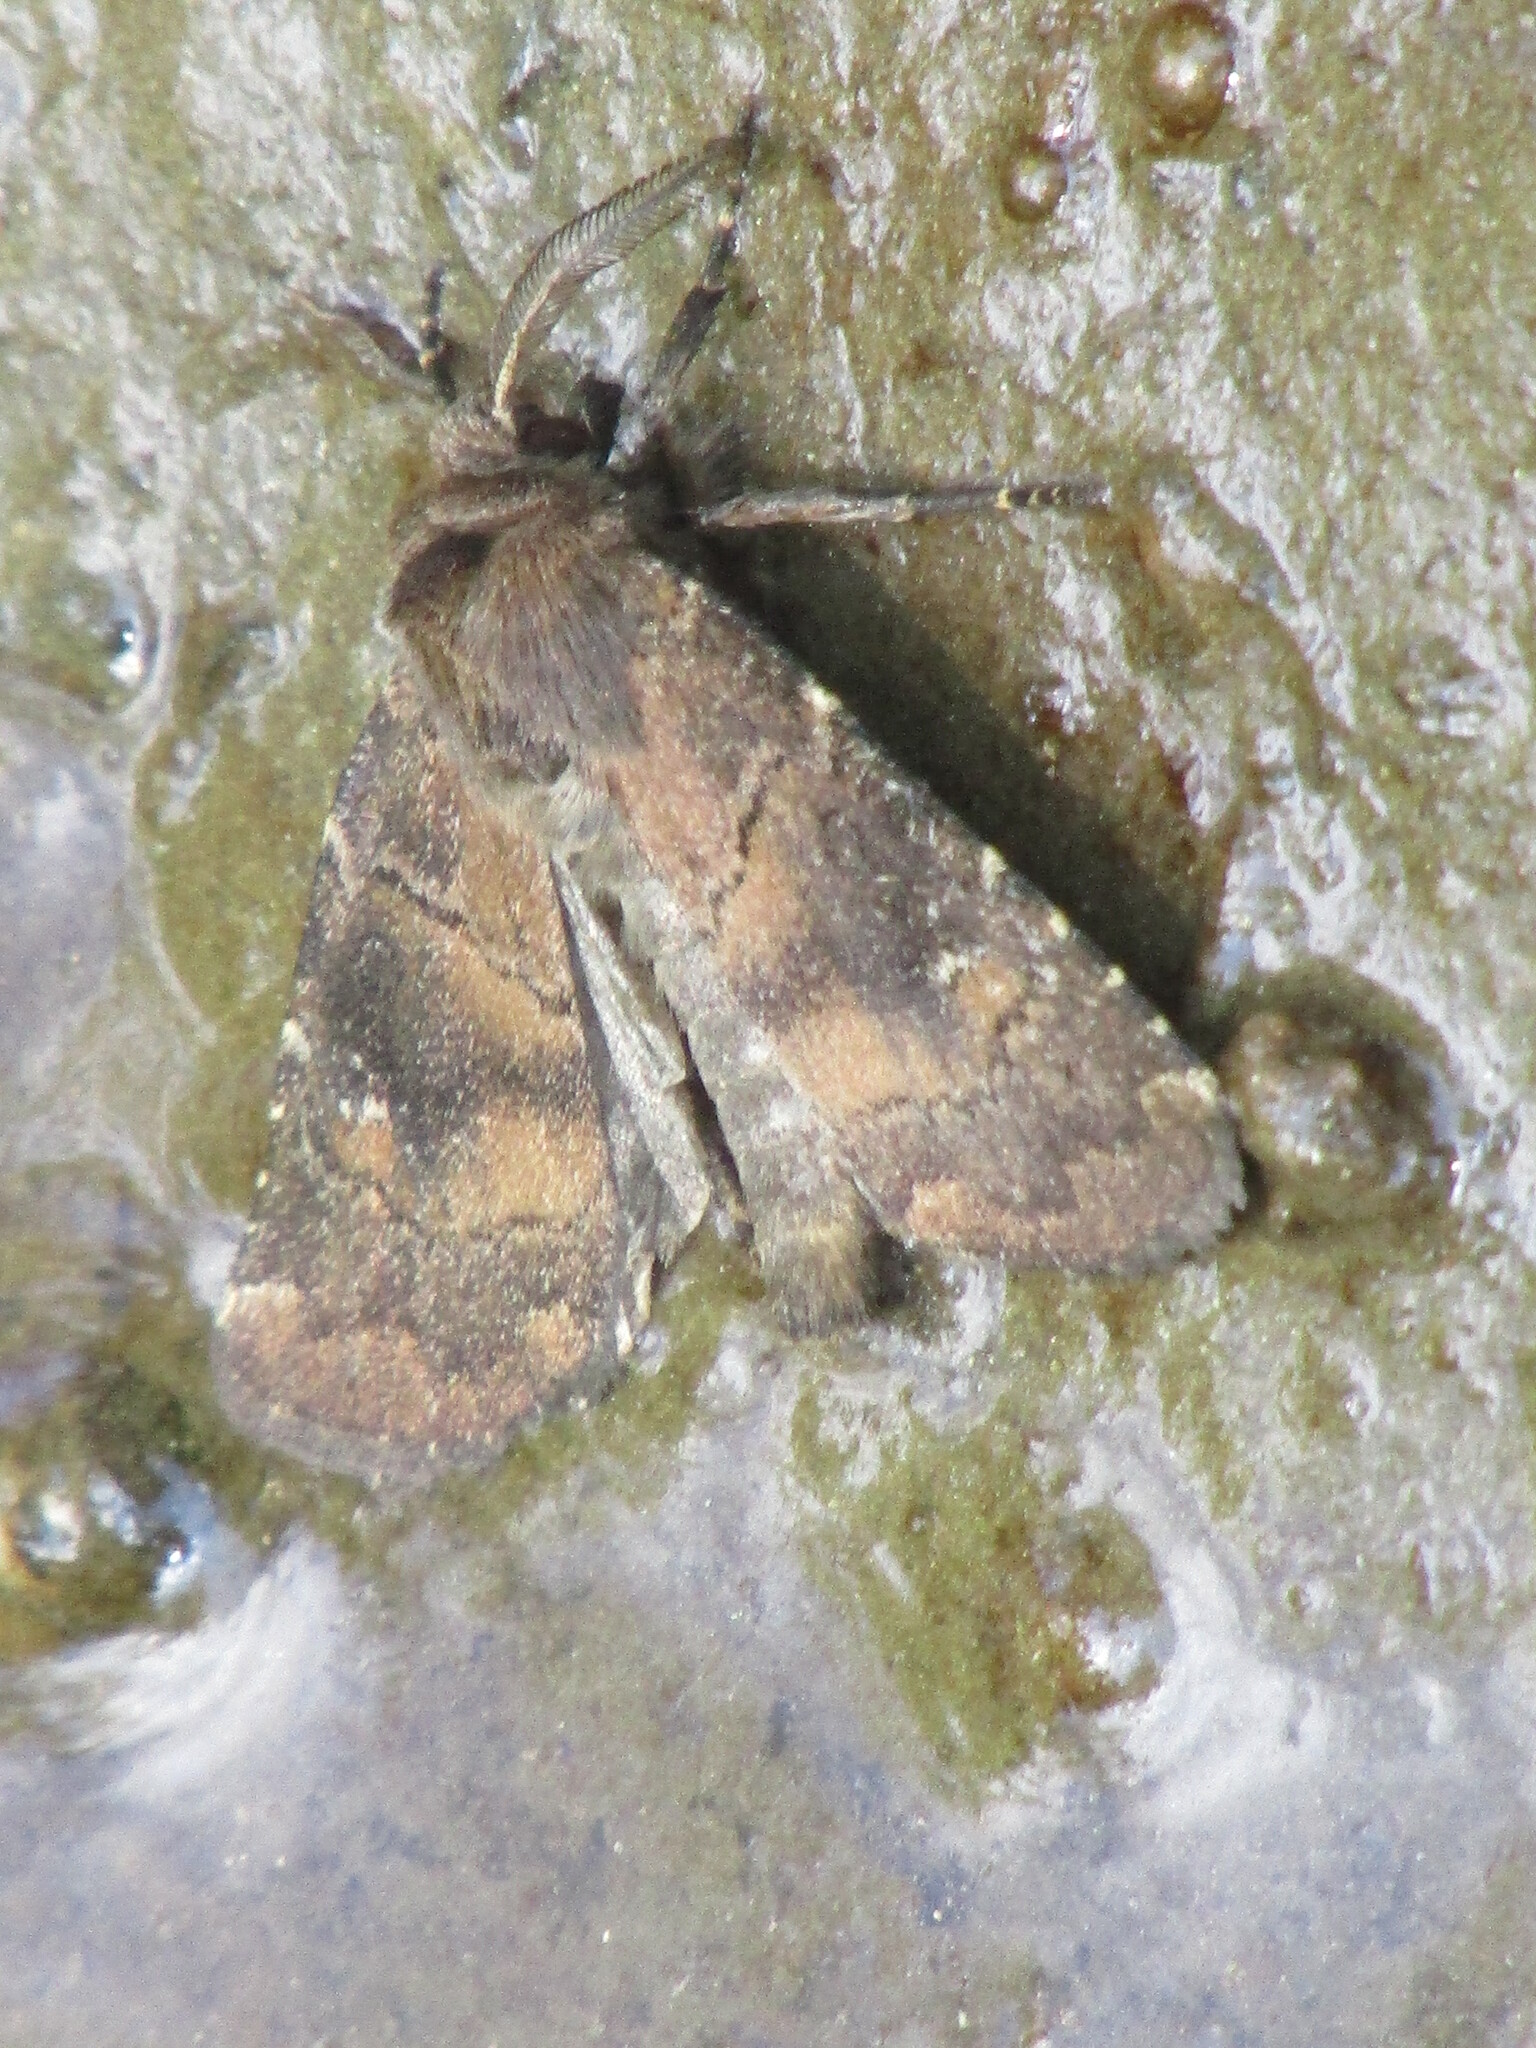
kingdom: Animalia
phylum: Arthropoda
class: Insecta
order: Lepidoptera
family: Noctuidae
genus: Charanyca
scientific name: Charanyca ferruginea
